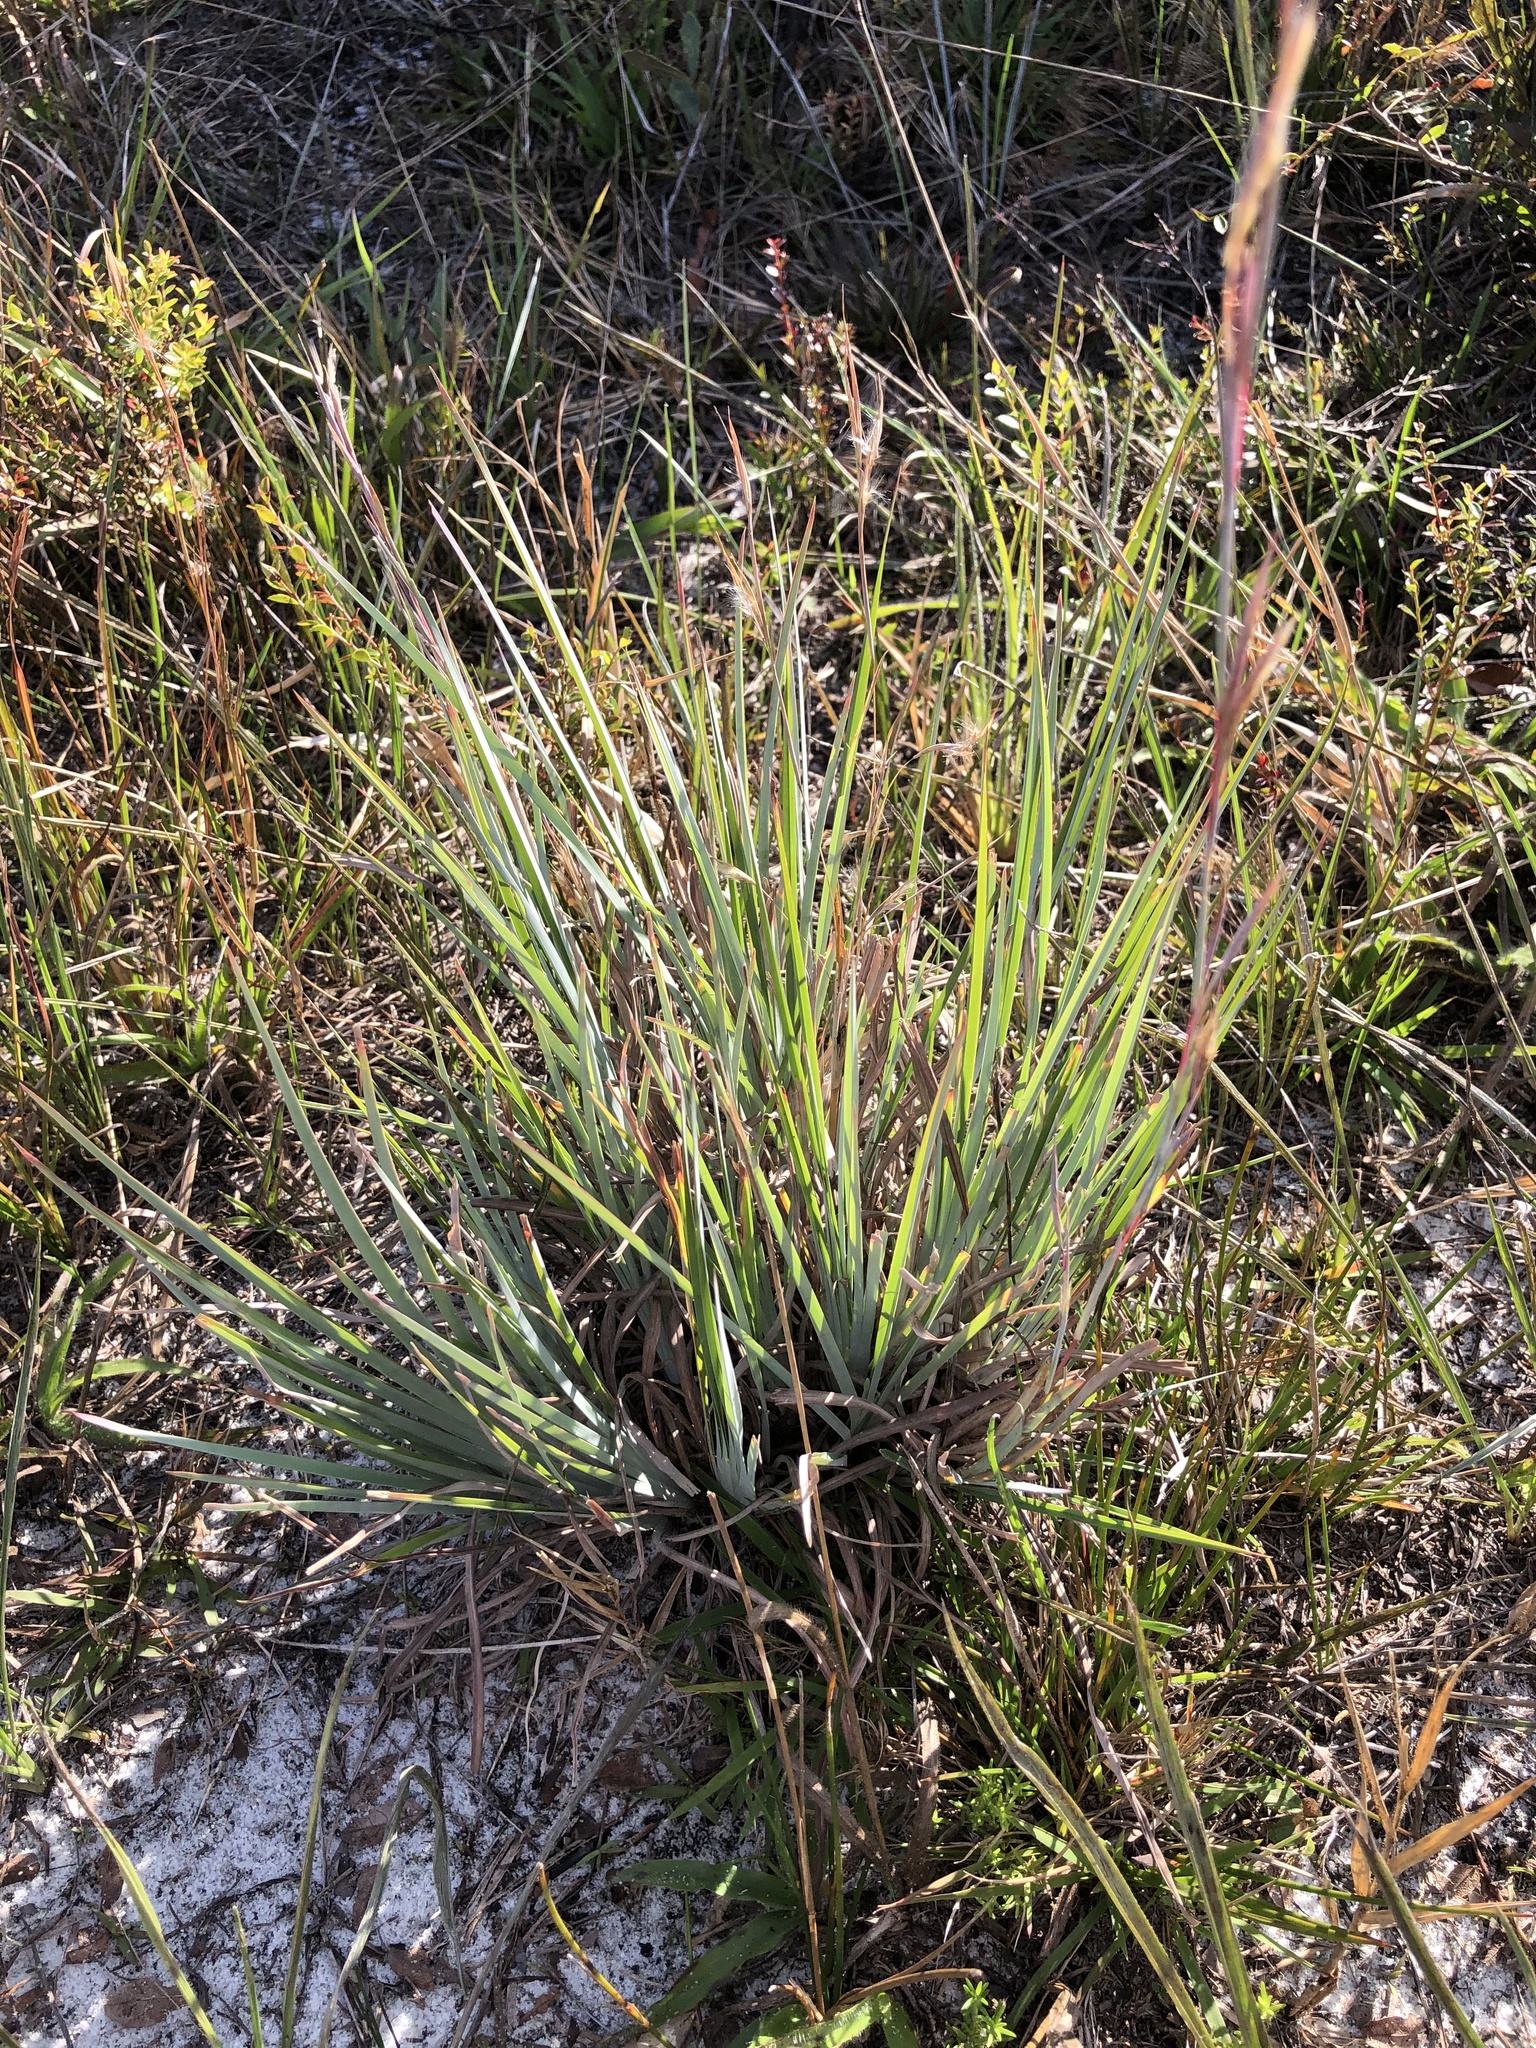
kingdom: Plantae
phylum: Tracheophyta
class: Liliopsida
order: Poales
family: Poaceae
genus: Andropogon
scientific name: Andropogon capillipes
